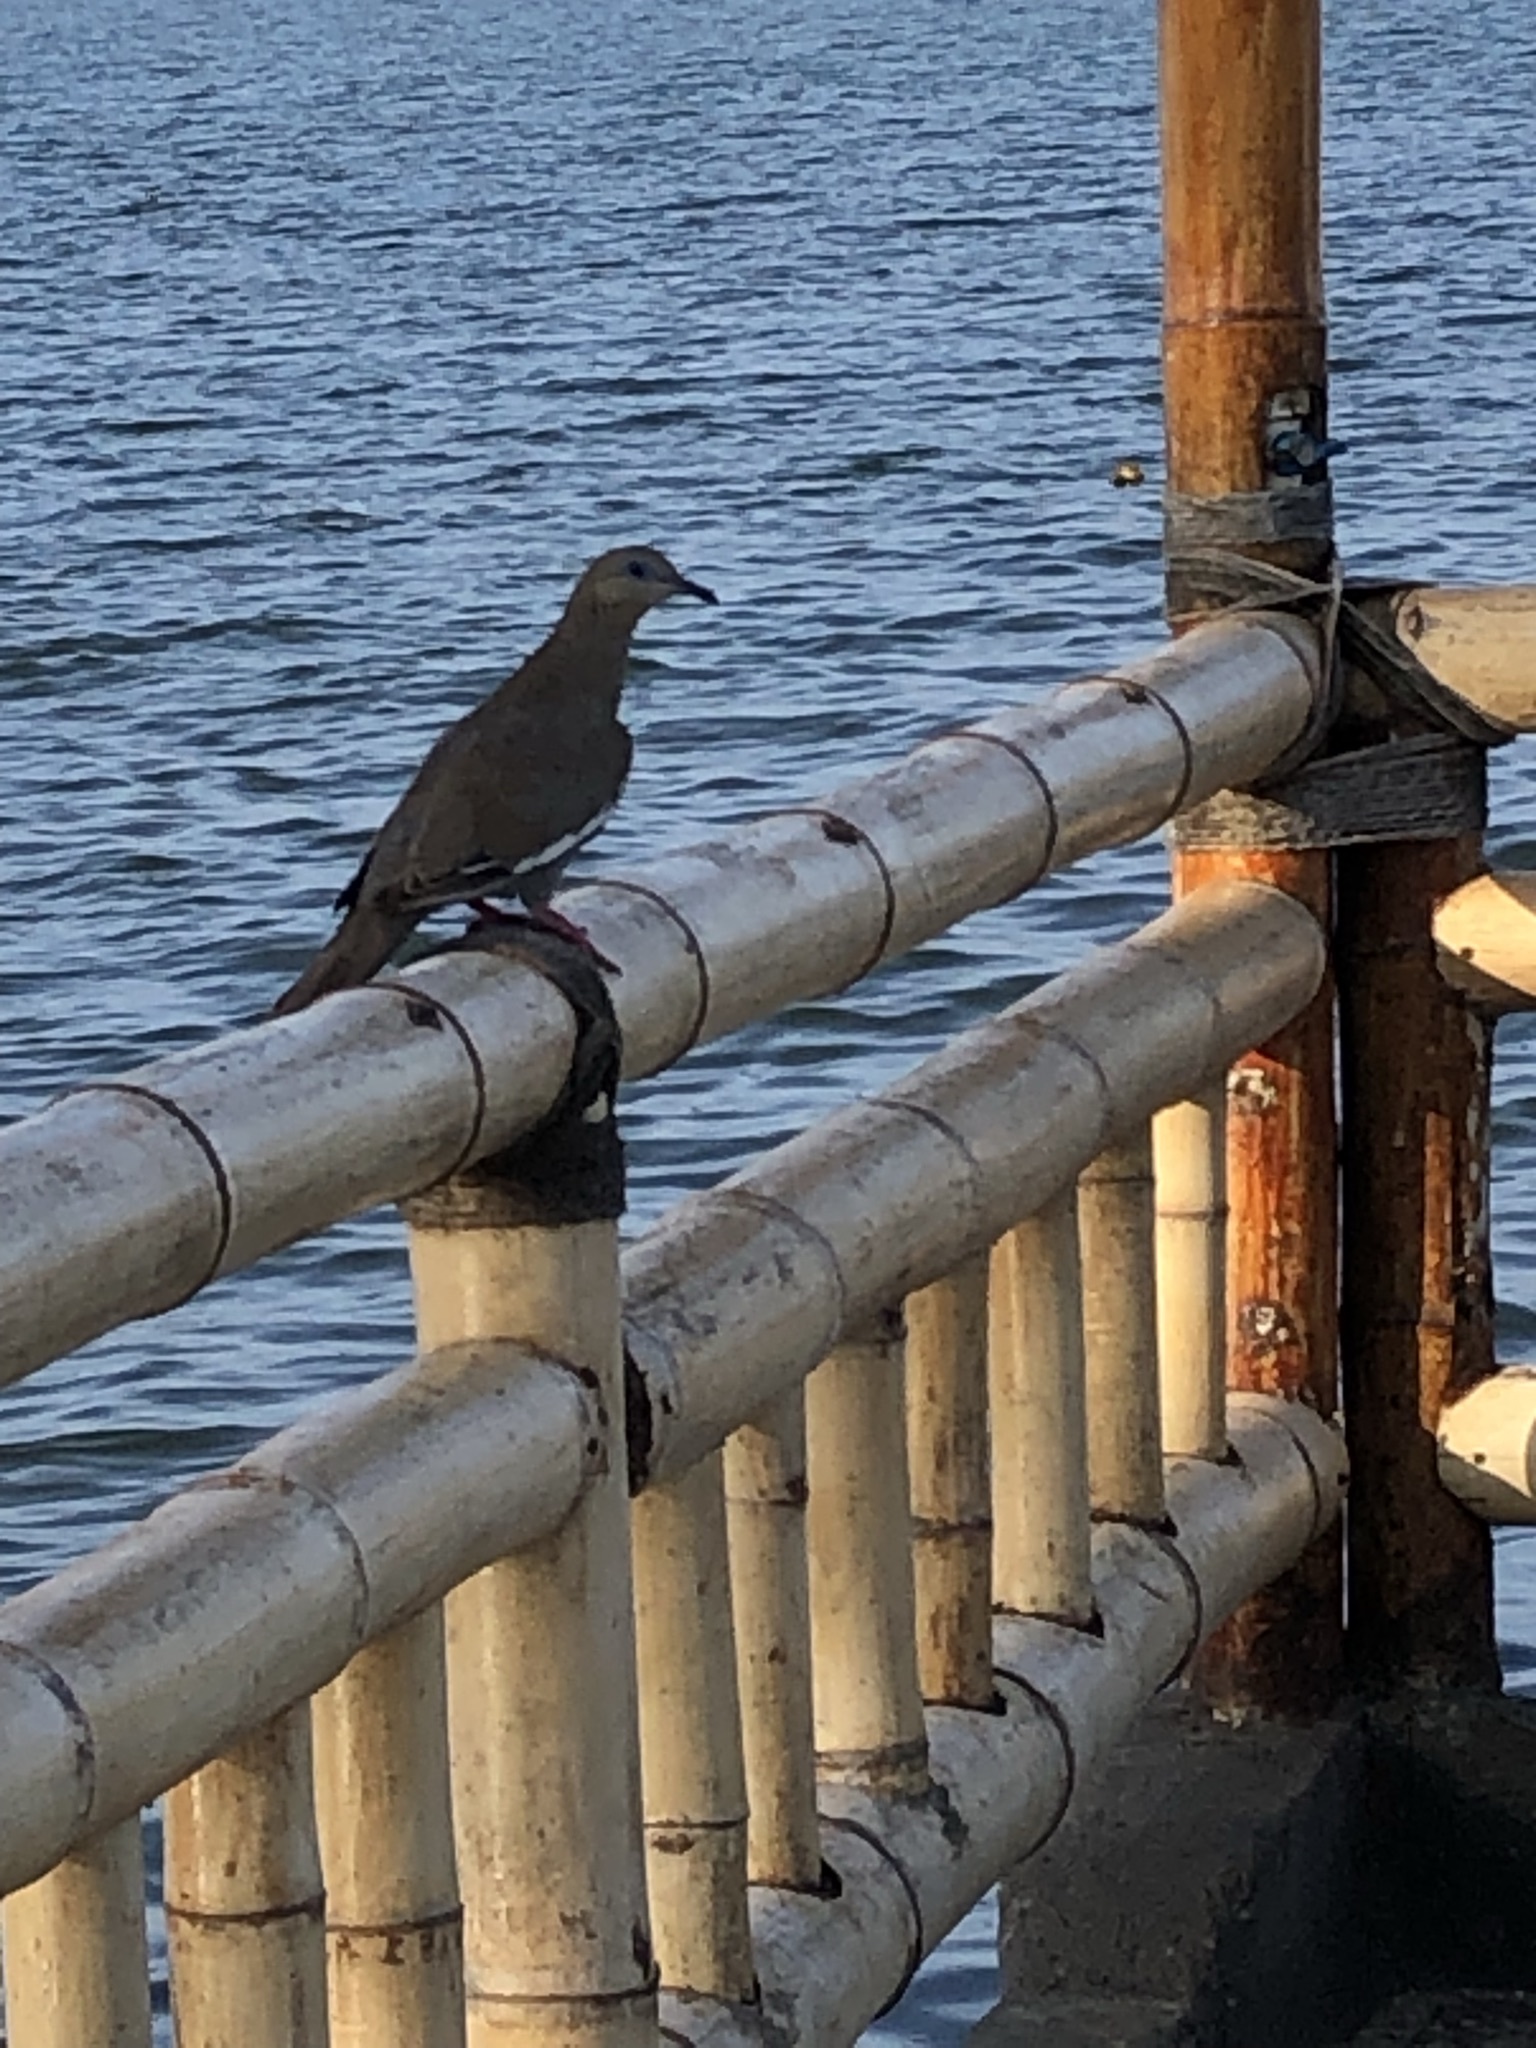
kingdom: Animalia
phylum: Chordata
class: Aves
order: Columbiformes
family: Columbidae
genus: Zenaida
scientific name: Zenaida meloda
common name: West peruvian dove
